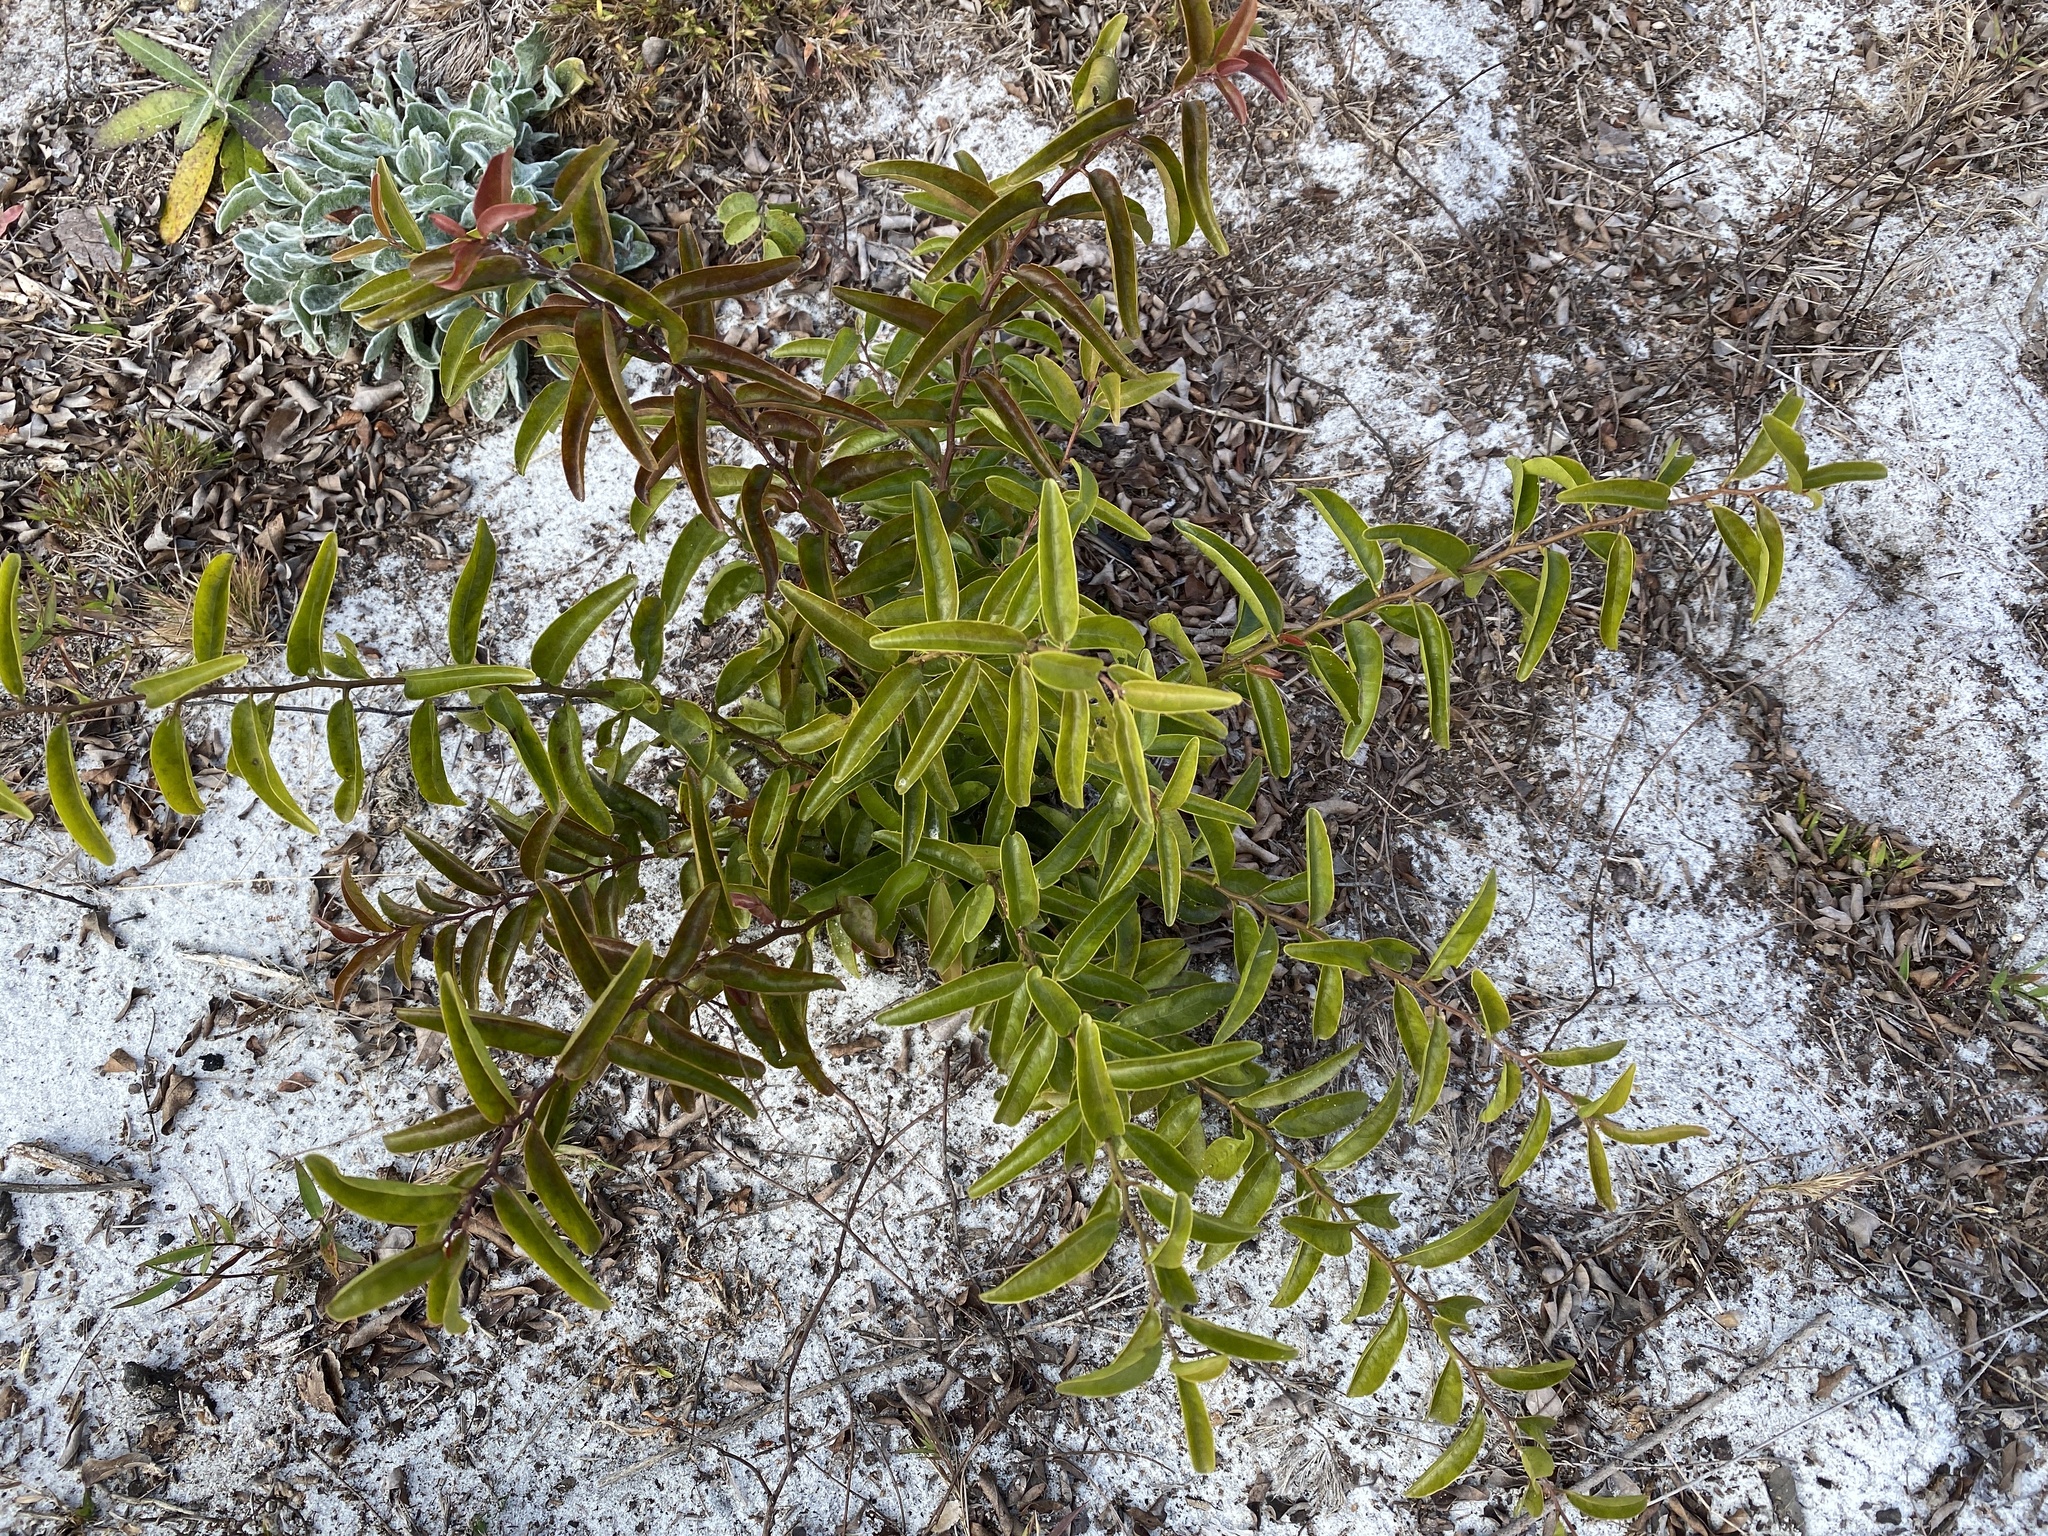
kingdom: Plantae
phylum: Tracheophyta
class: Magnoliopsida
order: Santalales
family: Ximeniaceae
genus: Ximenia
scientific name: Ximenia americana
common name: Tallowwood
